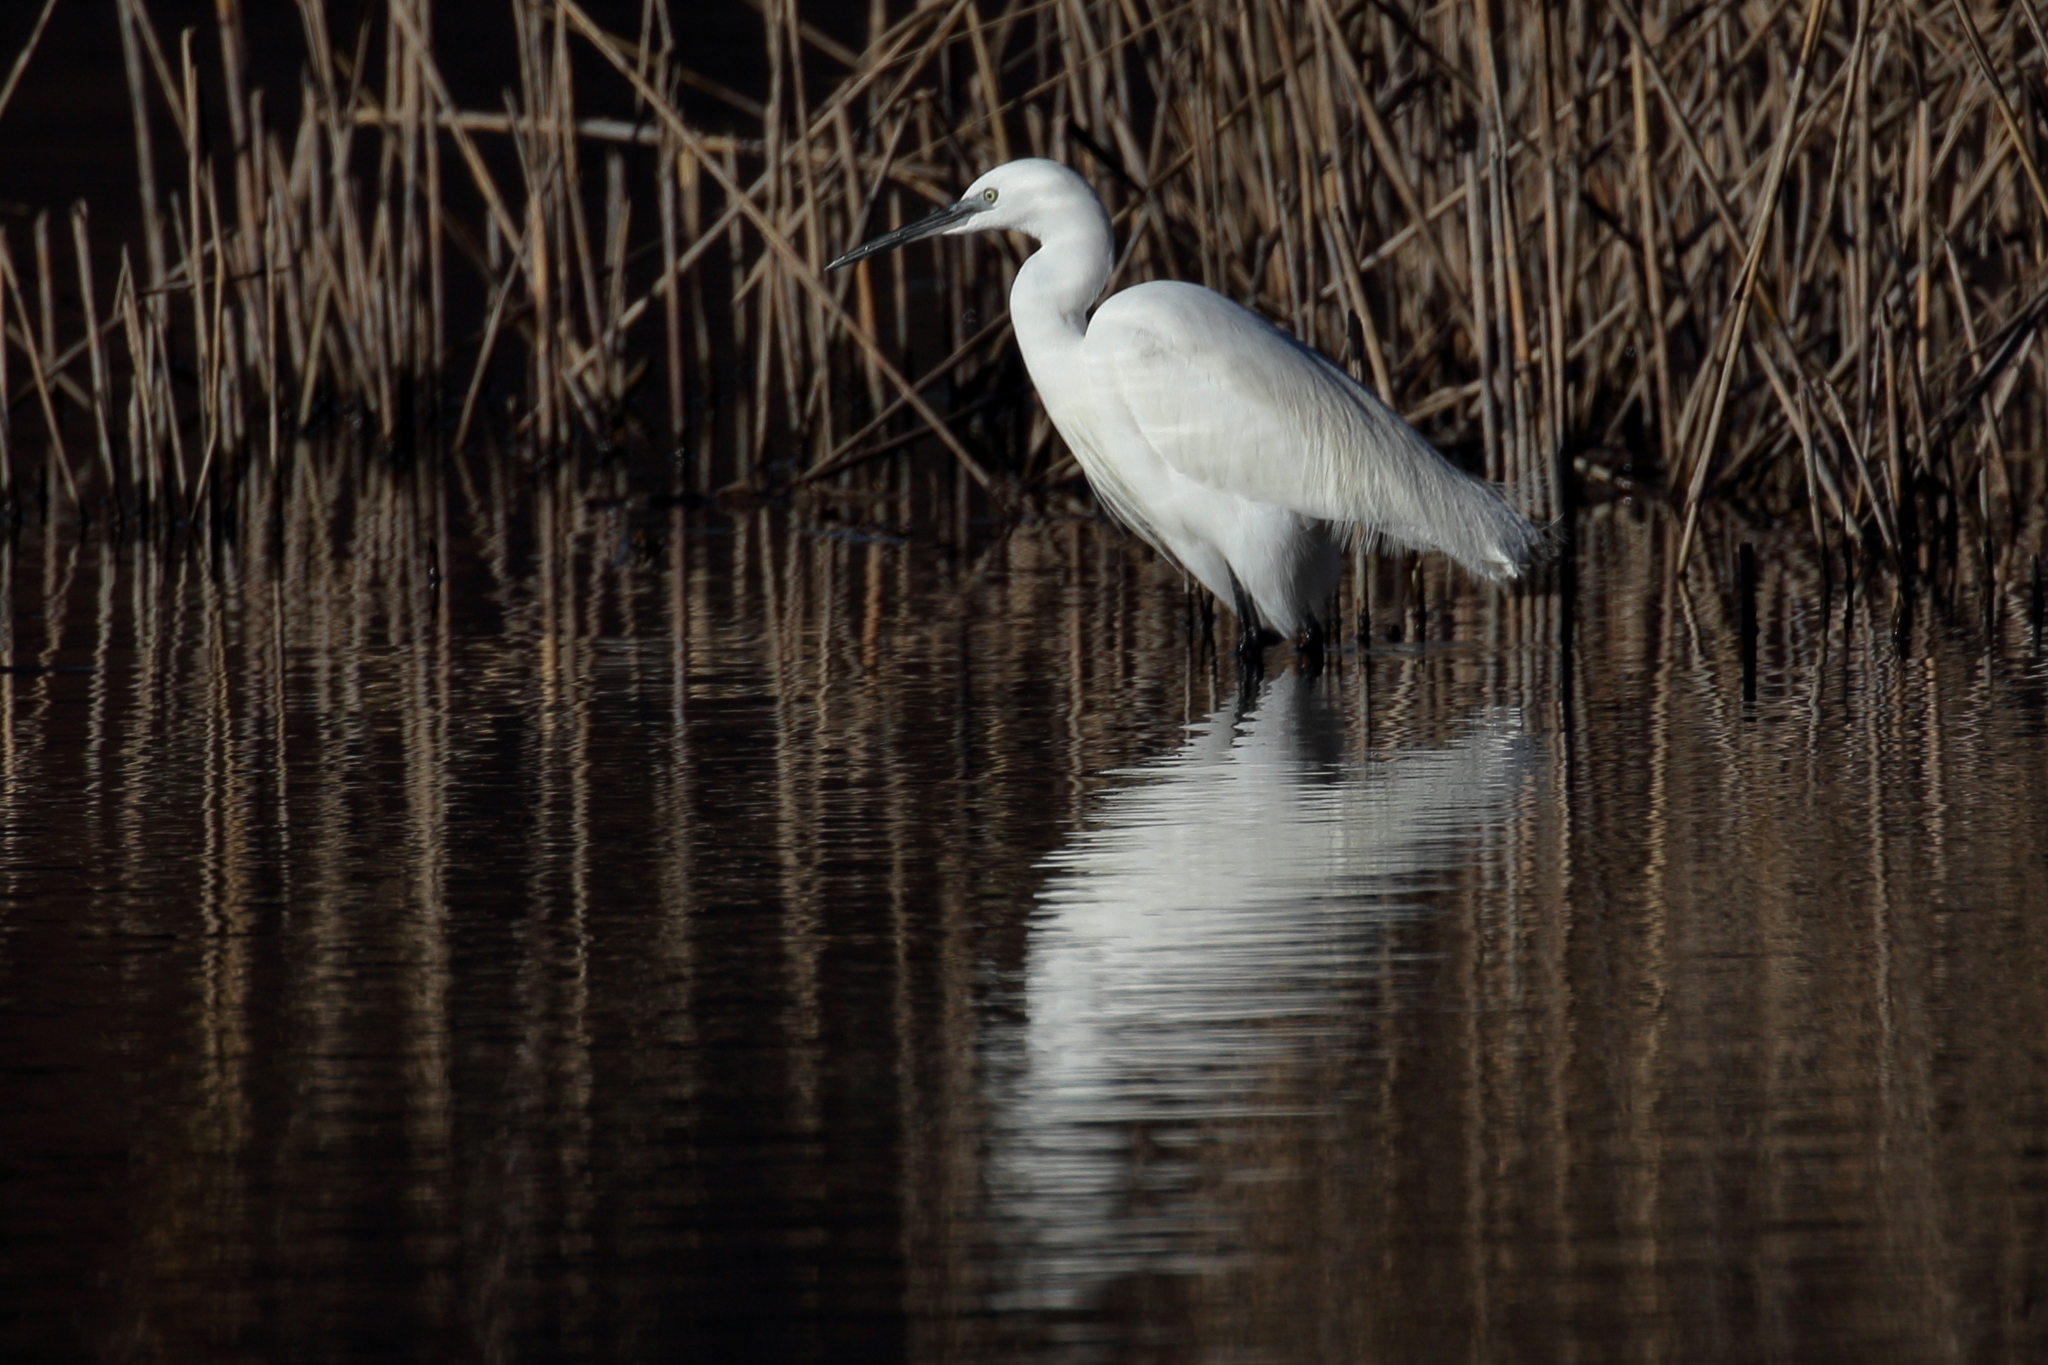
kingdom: Animalia
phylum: Chordata
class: Aves
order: Pelecaniformes
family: Ardeidae
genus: Egretta
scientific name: Egretta garzetta
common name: Little egret
